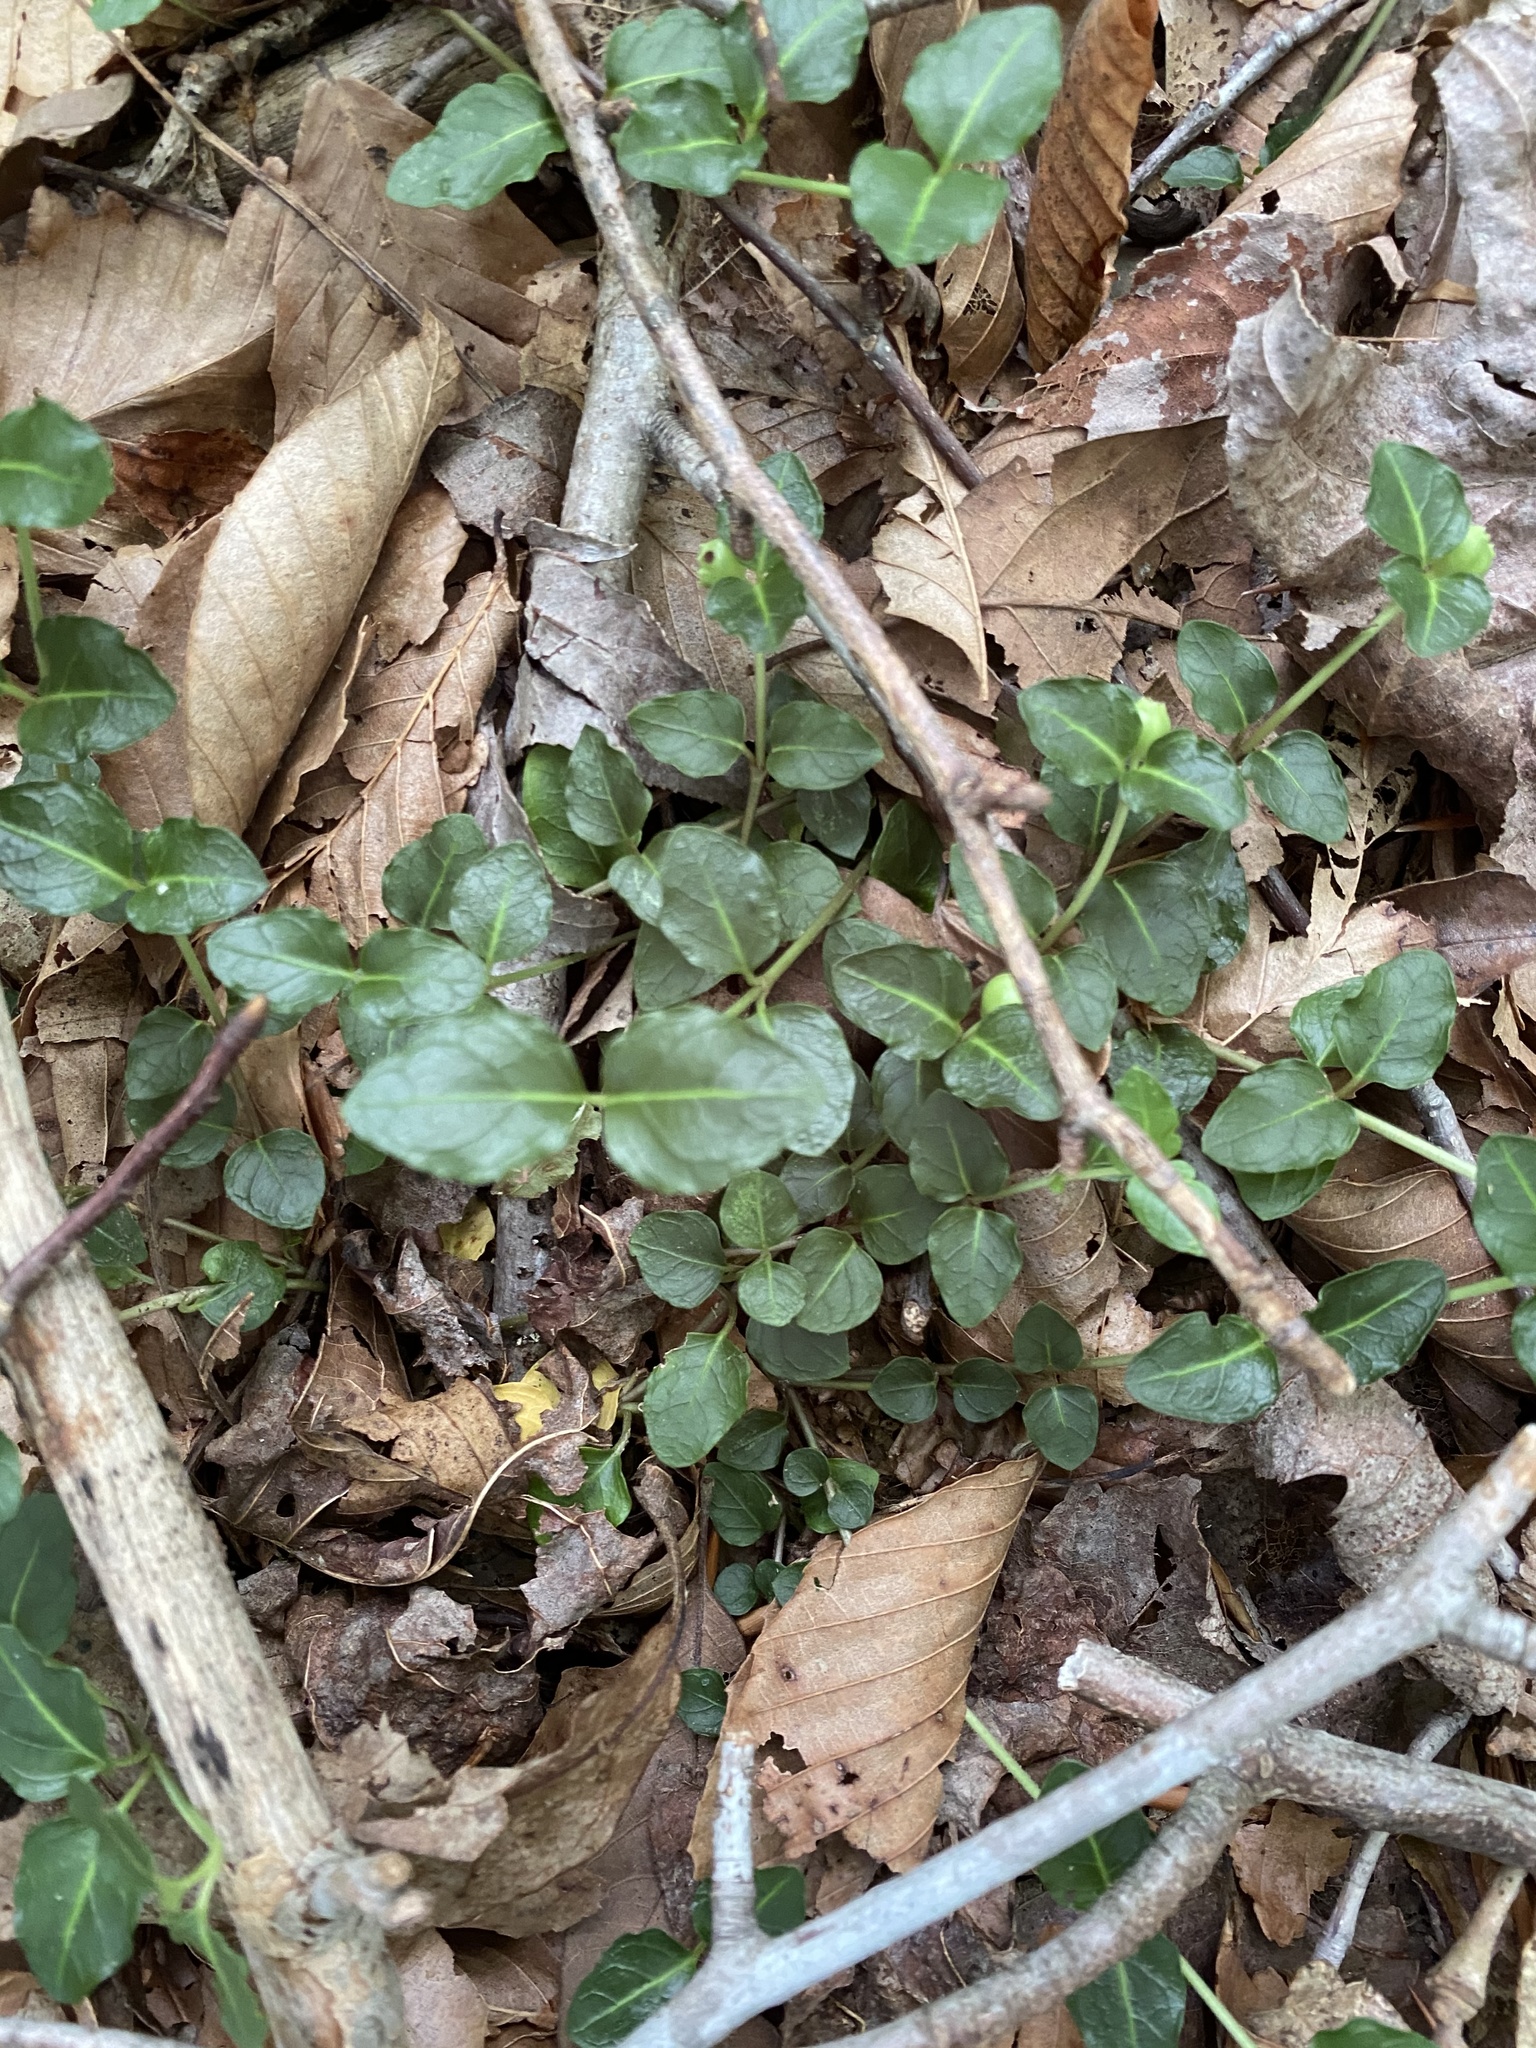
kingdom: Plantae
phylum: Tracheophyta
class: Magnoliopsida
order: Gentianales
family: Rubiaceae
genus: Mitchella
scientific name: Mitchella repens
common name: Partridge-berry
